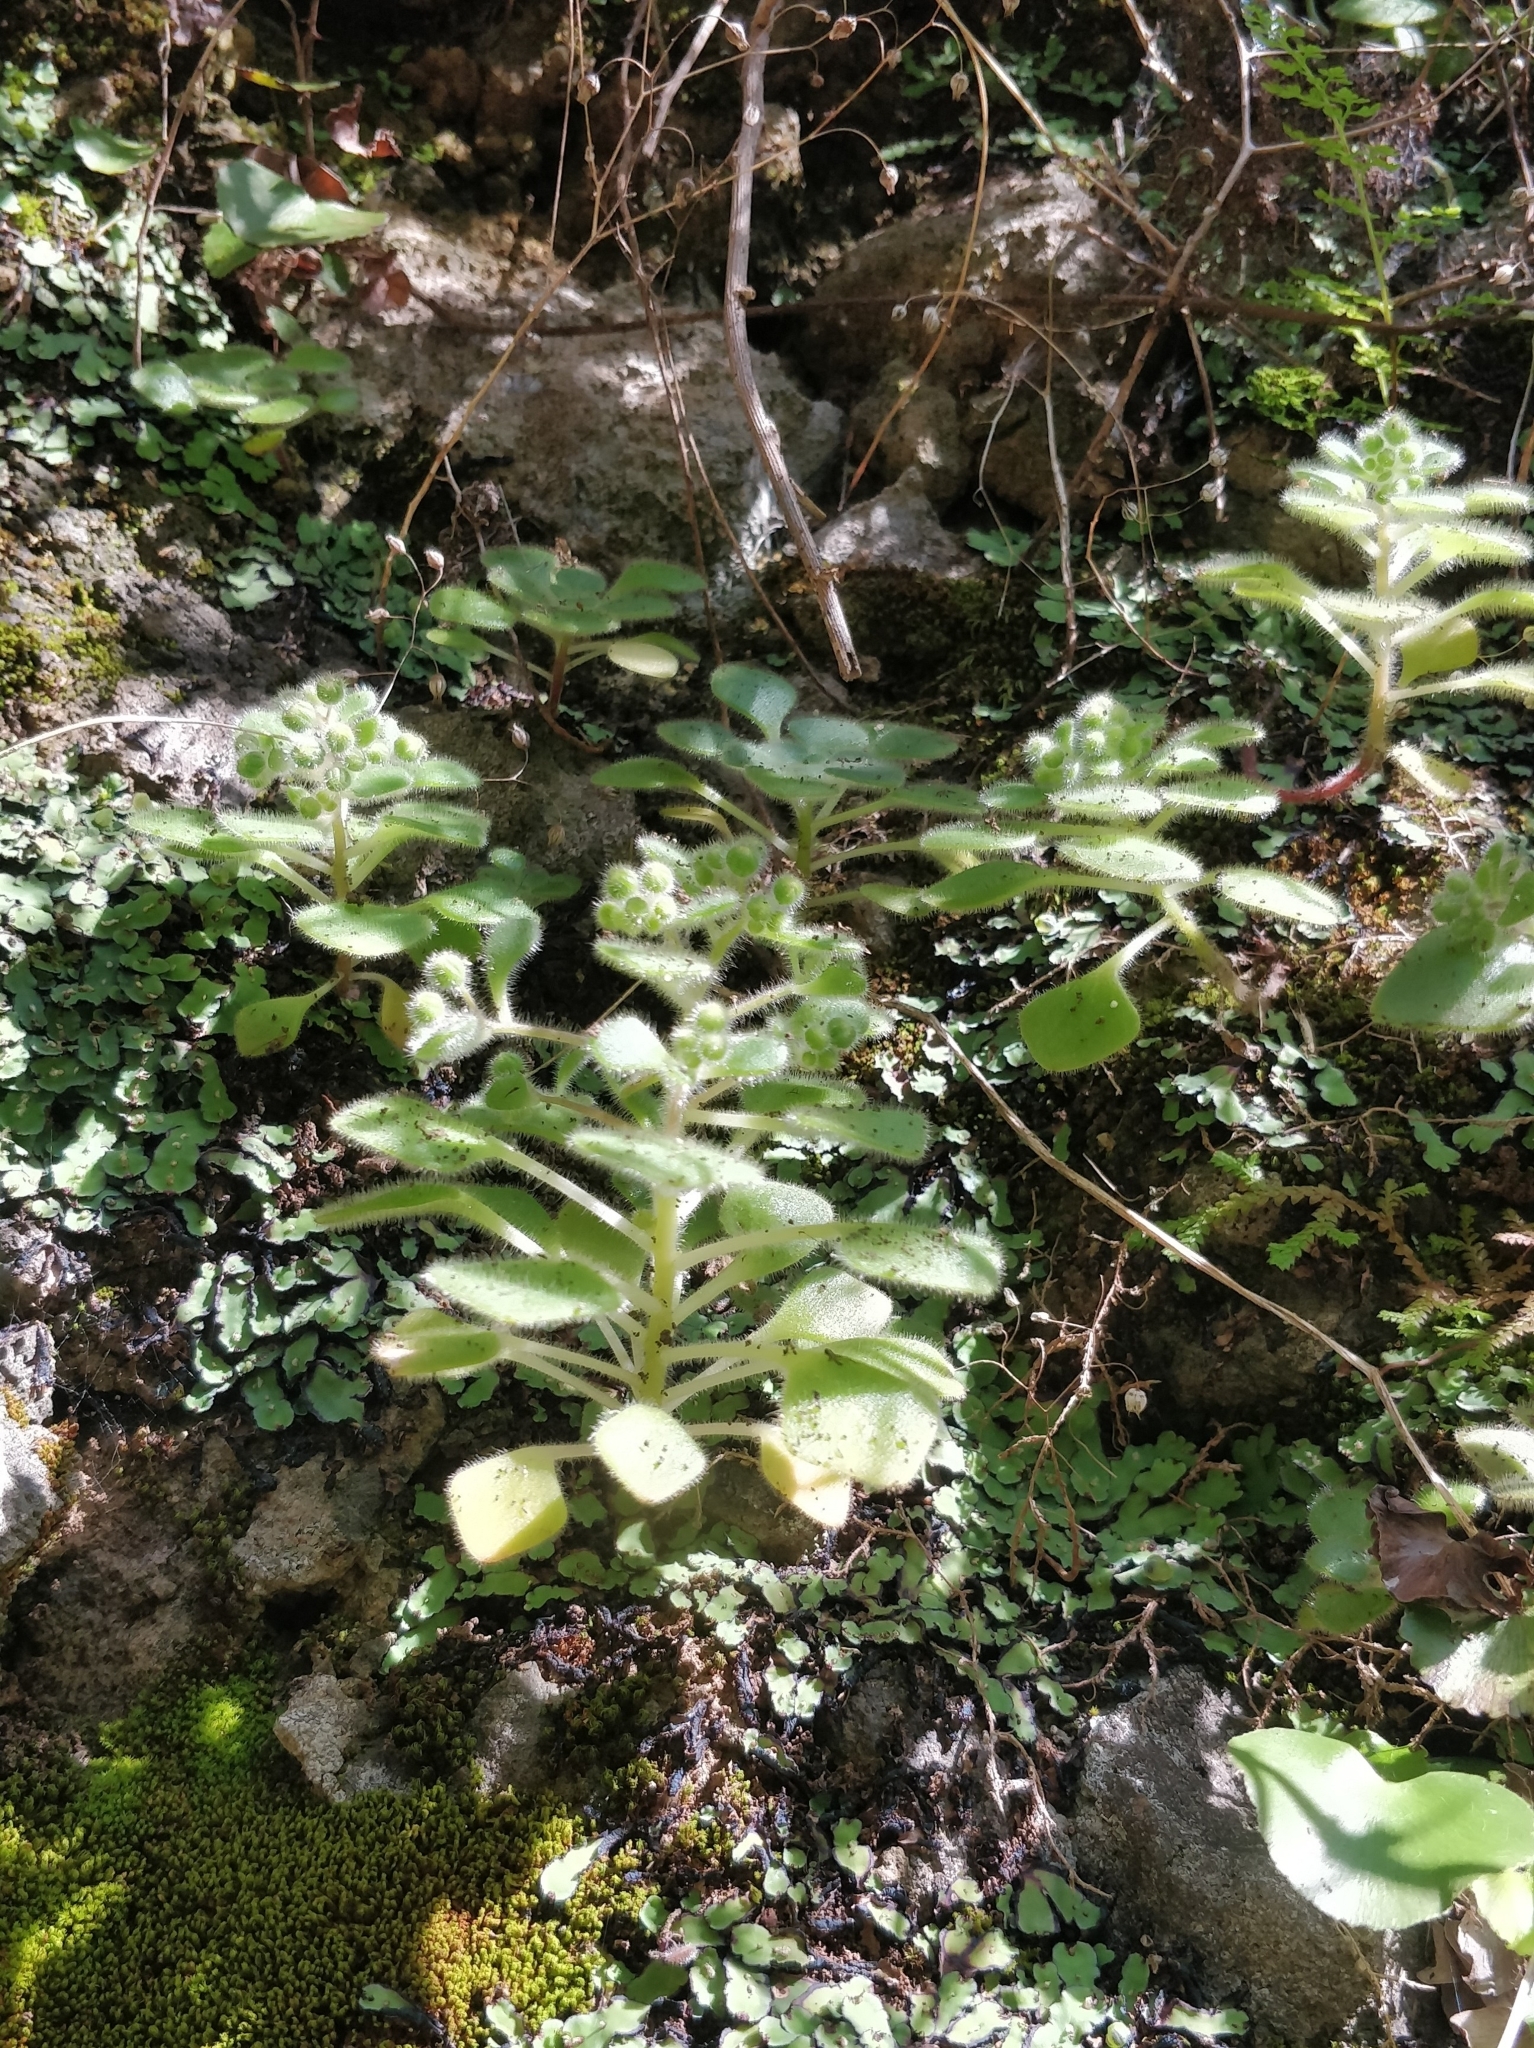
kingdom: Plantae
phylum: Tracheophyta
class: Magnoliopsida
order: Saxifragales
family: Crassulaceae
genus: Aichryson
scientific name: Aichryson villosum
